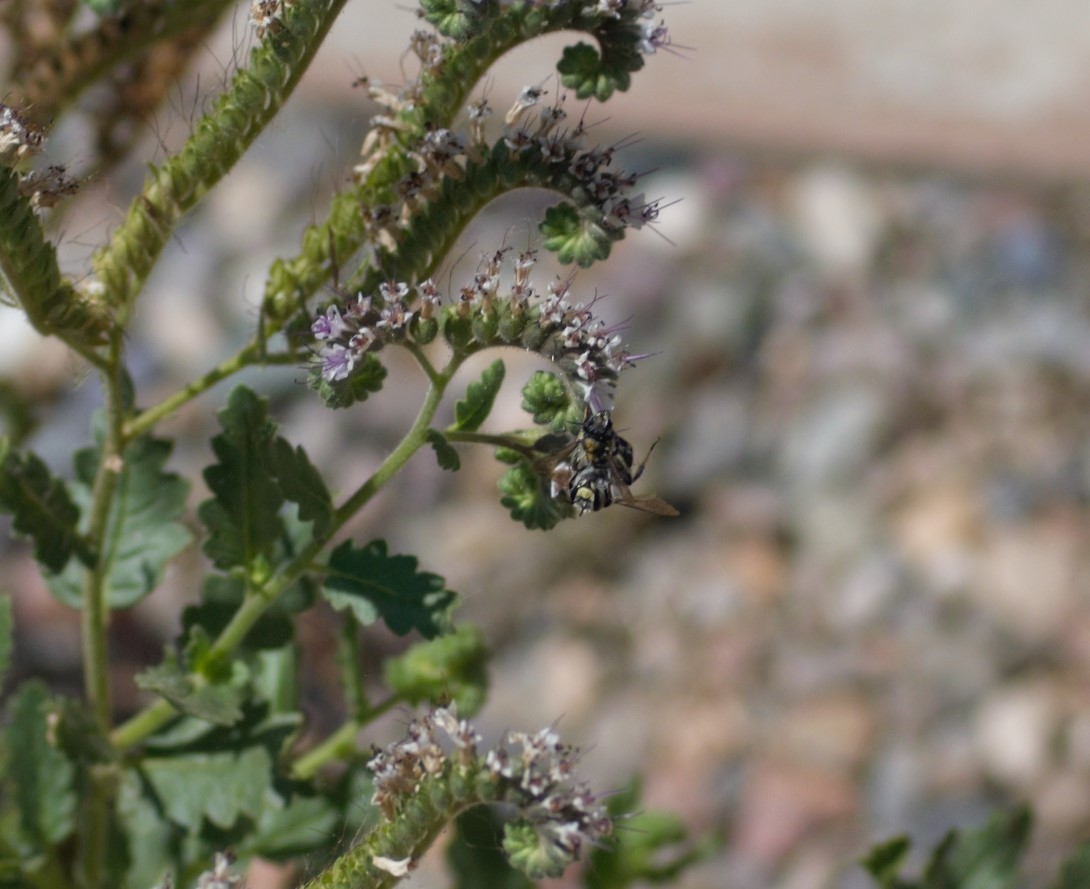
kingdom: Animalia
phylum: Arthropoda
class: Insecta
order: Hymenoptera
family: Megachilidae
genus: Anthidium
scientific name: Anthidium maculosum
